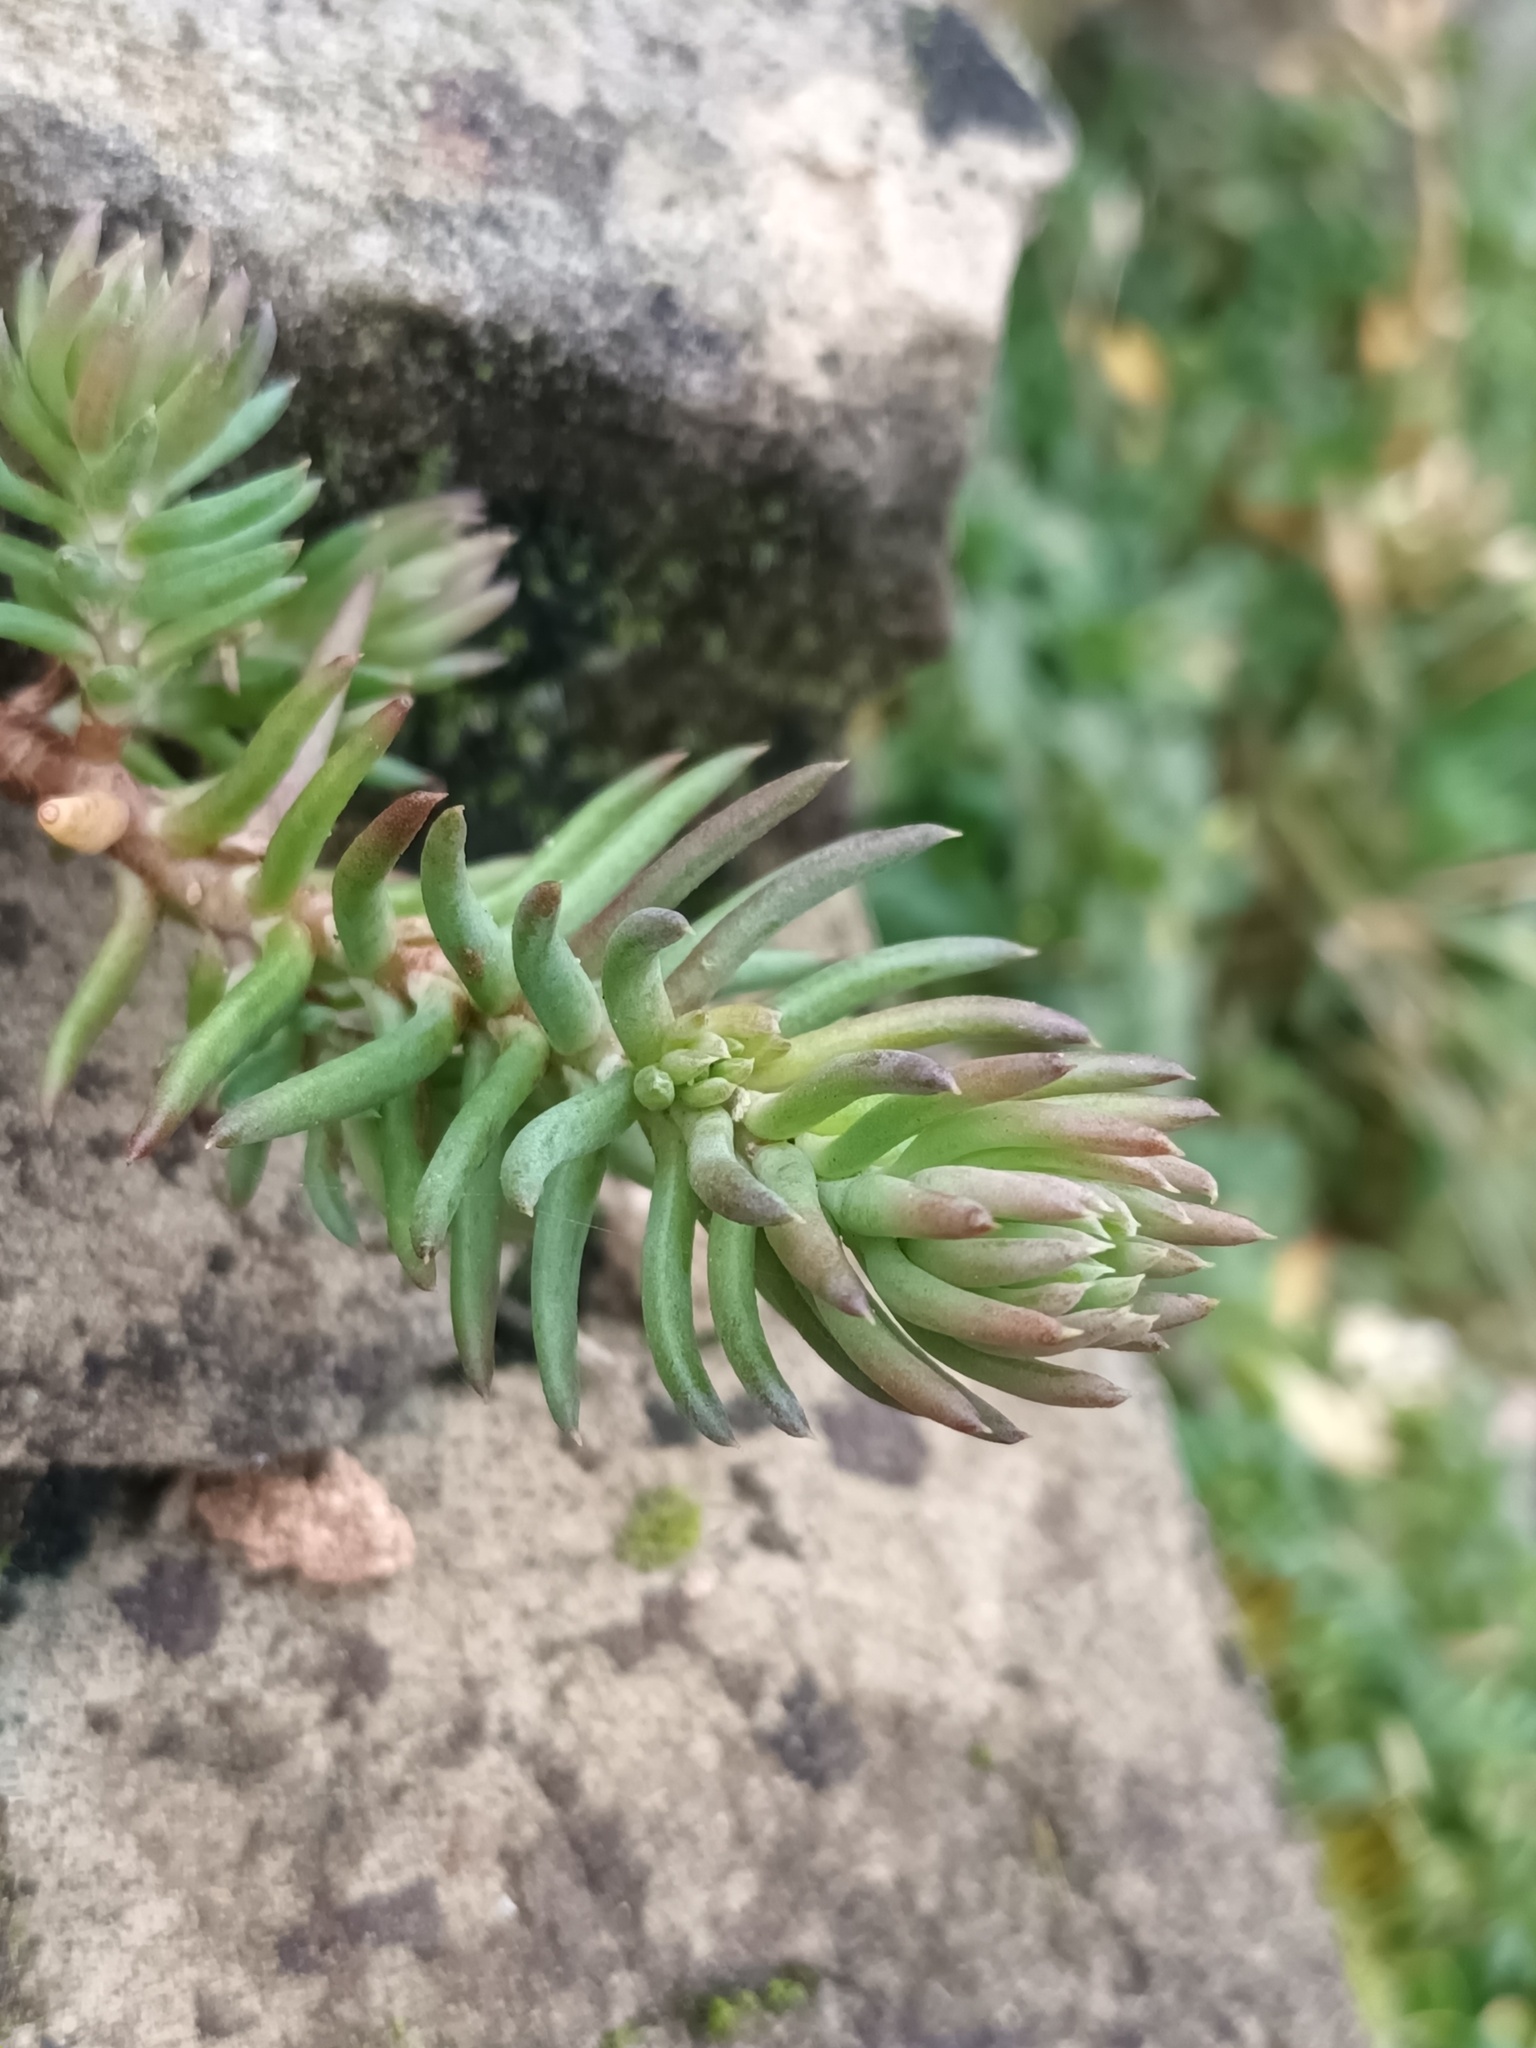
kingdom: Plantae
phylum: Tracheophyta
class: Magnoliopsida
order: Saxifragales
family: Crassulaceae
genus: Petrosedum
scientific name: Petrosedum rupestre
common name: Jenny's stonecrop
